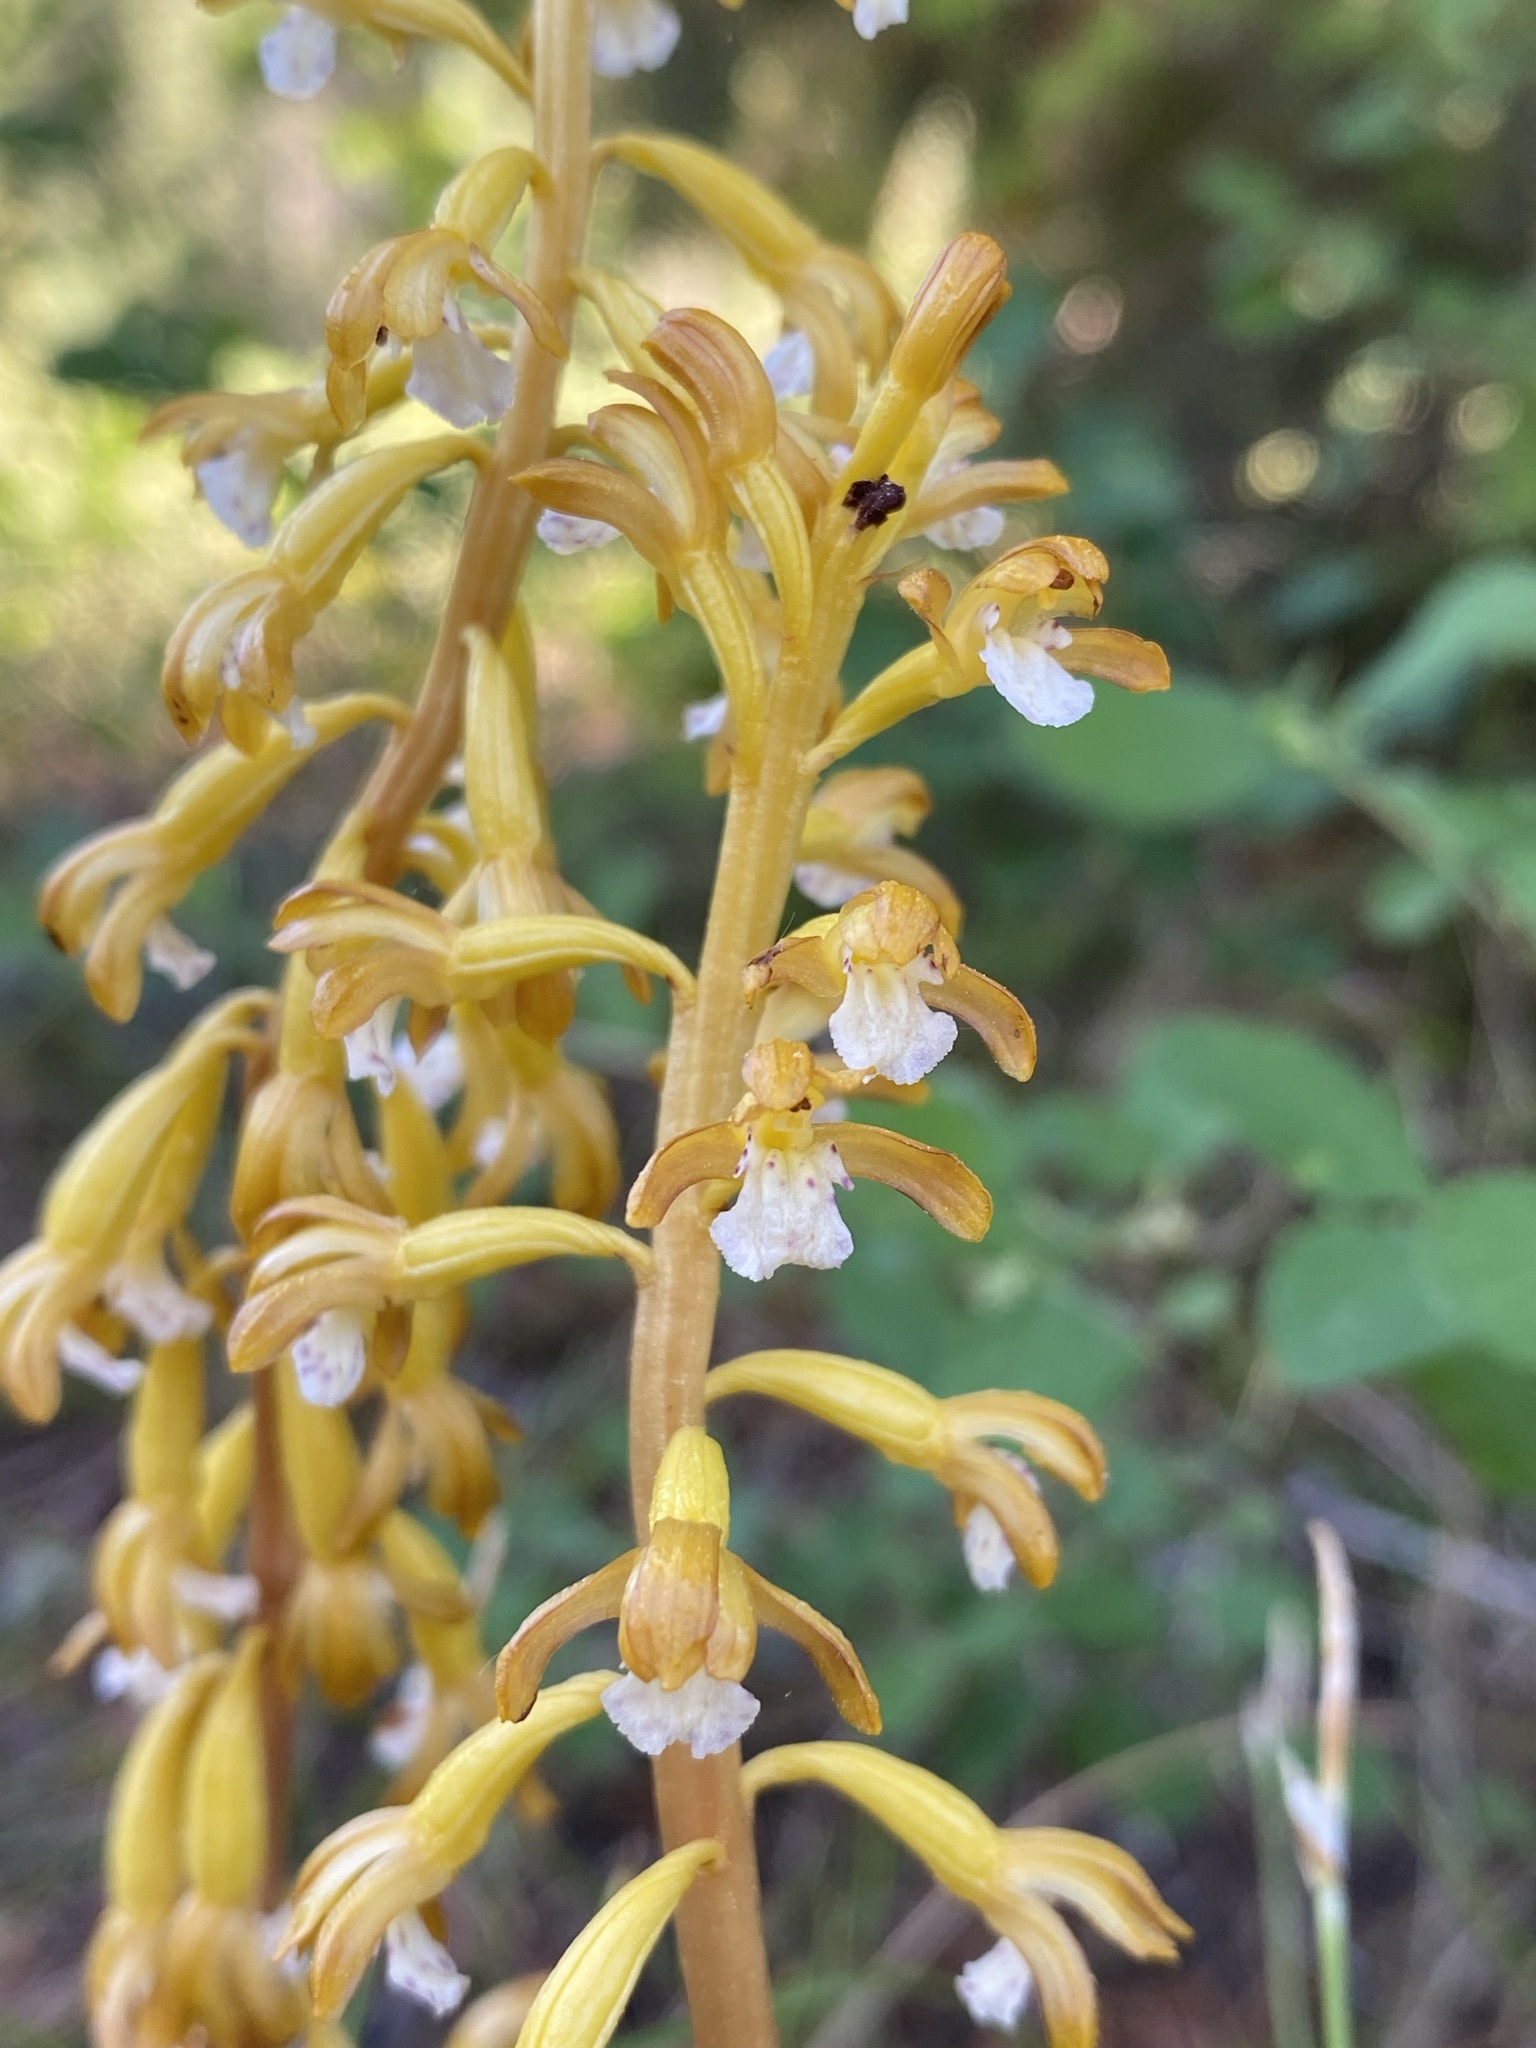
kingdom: Plantae
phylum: Tracheophyta
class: Liliopsida
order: Asparagales
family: Orchidaceae
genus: Corallorhiza
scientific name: Corallorhiza maculata
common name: Spotted coralroot
